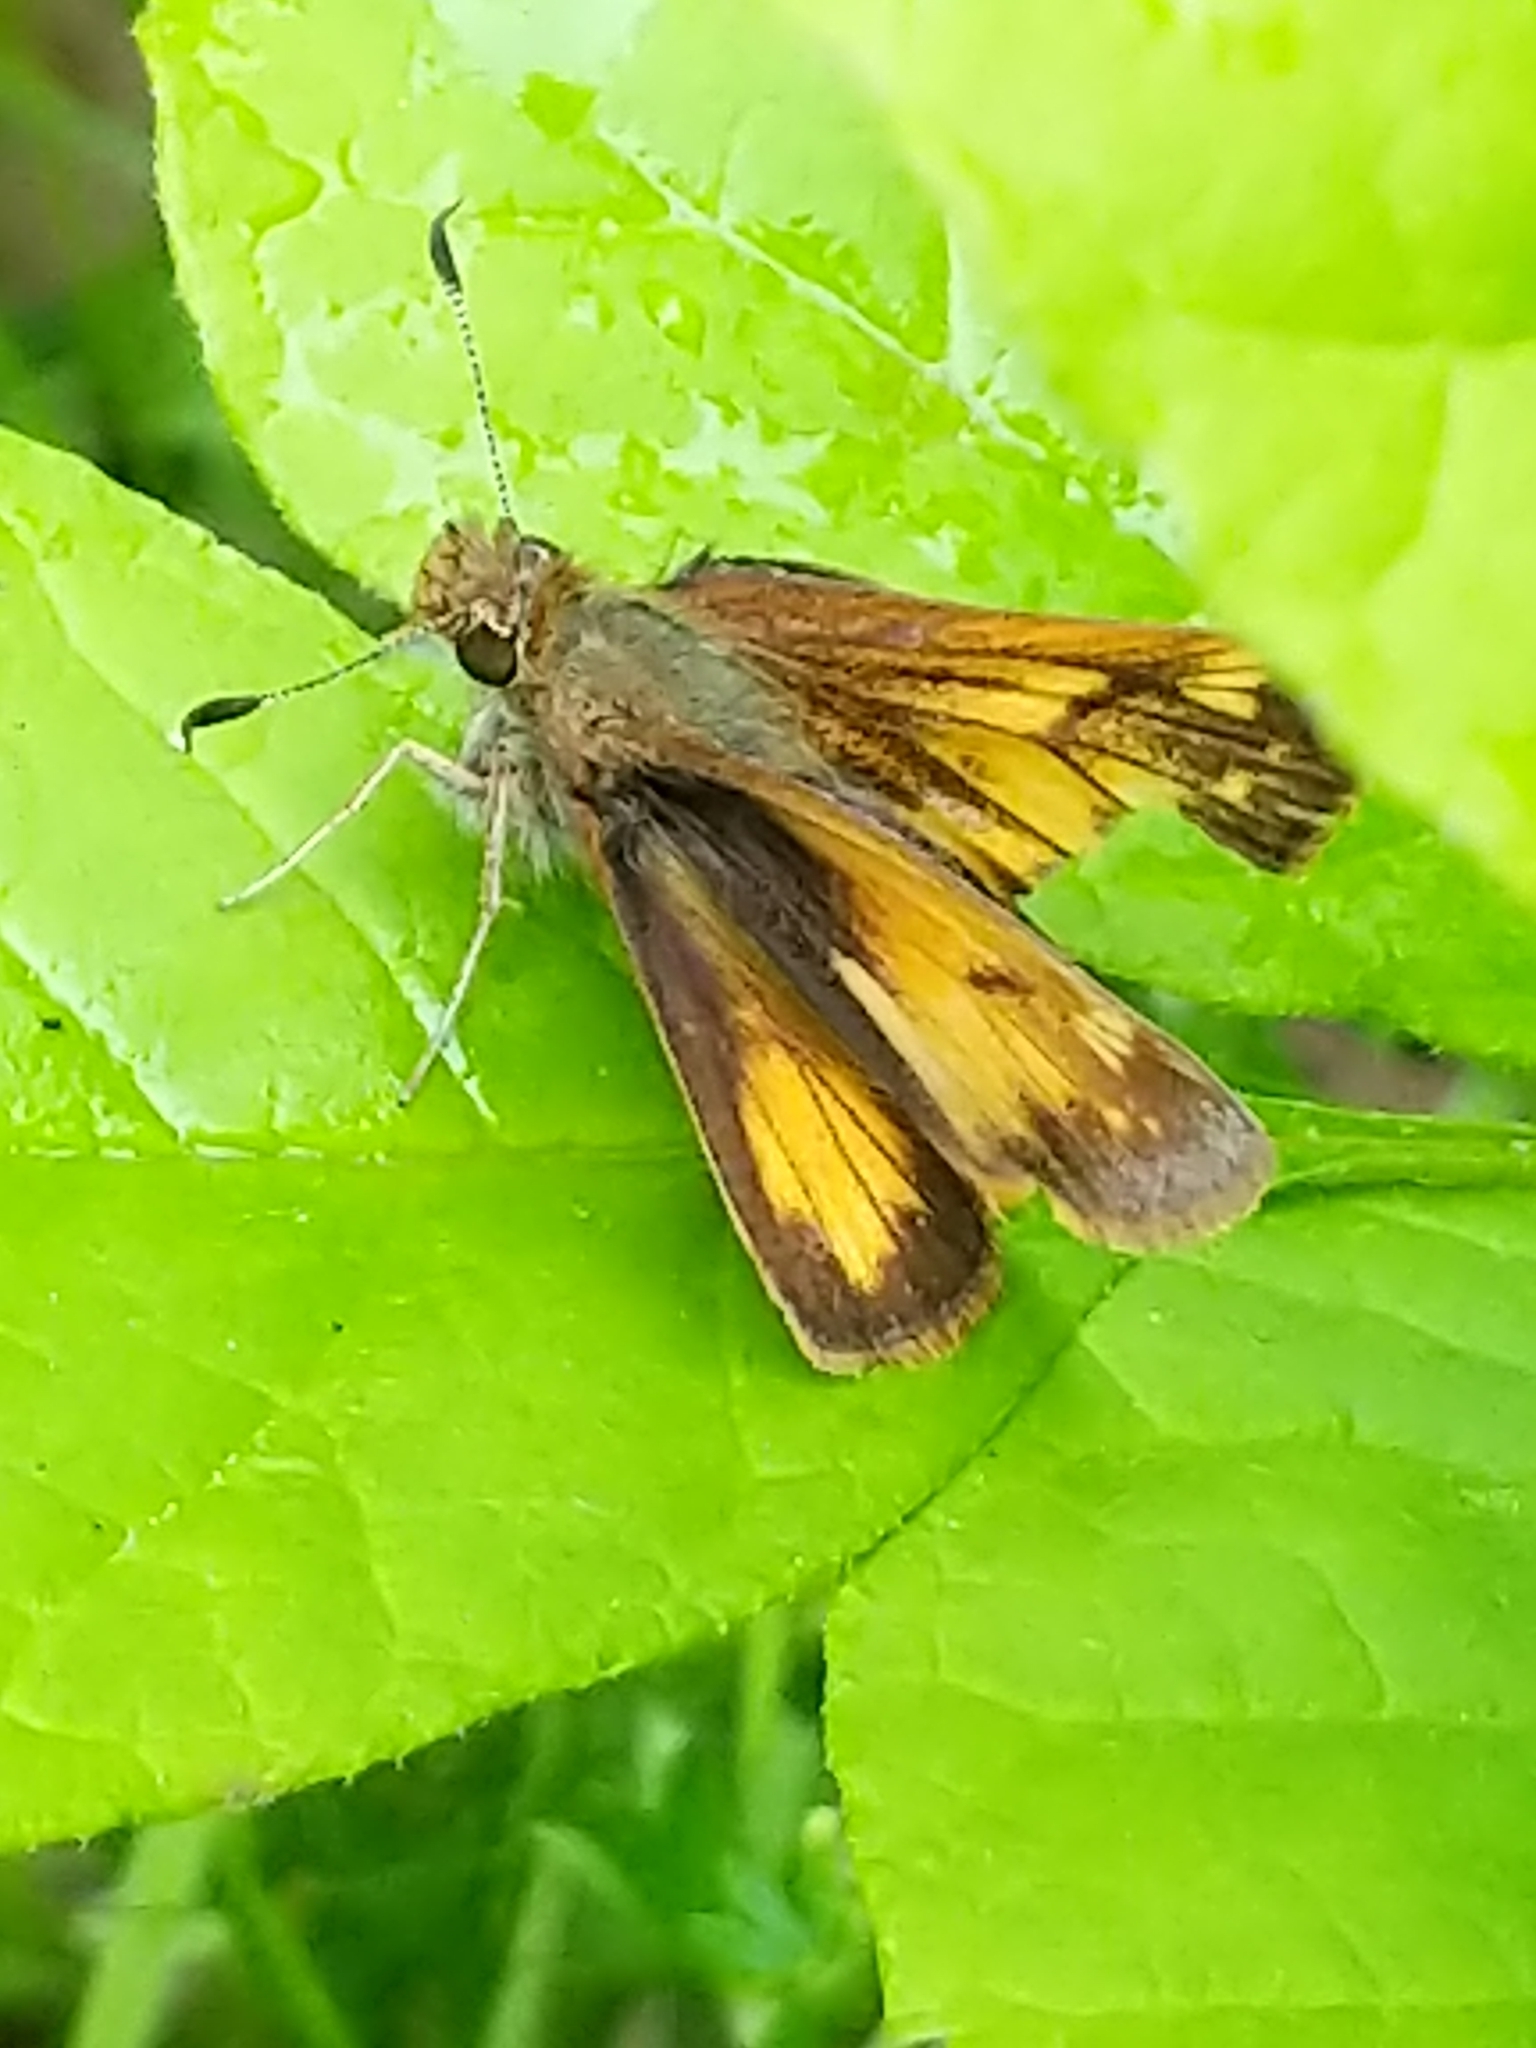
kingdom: Animalia
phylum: Arthropoda
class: Insecta
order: Lepidoptera
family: Hesperiidae
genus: Lon
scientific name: Lon hobomok
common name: Hobomok skipper
